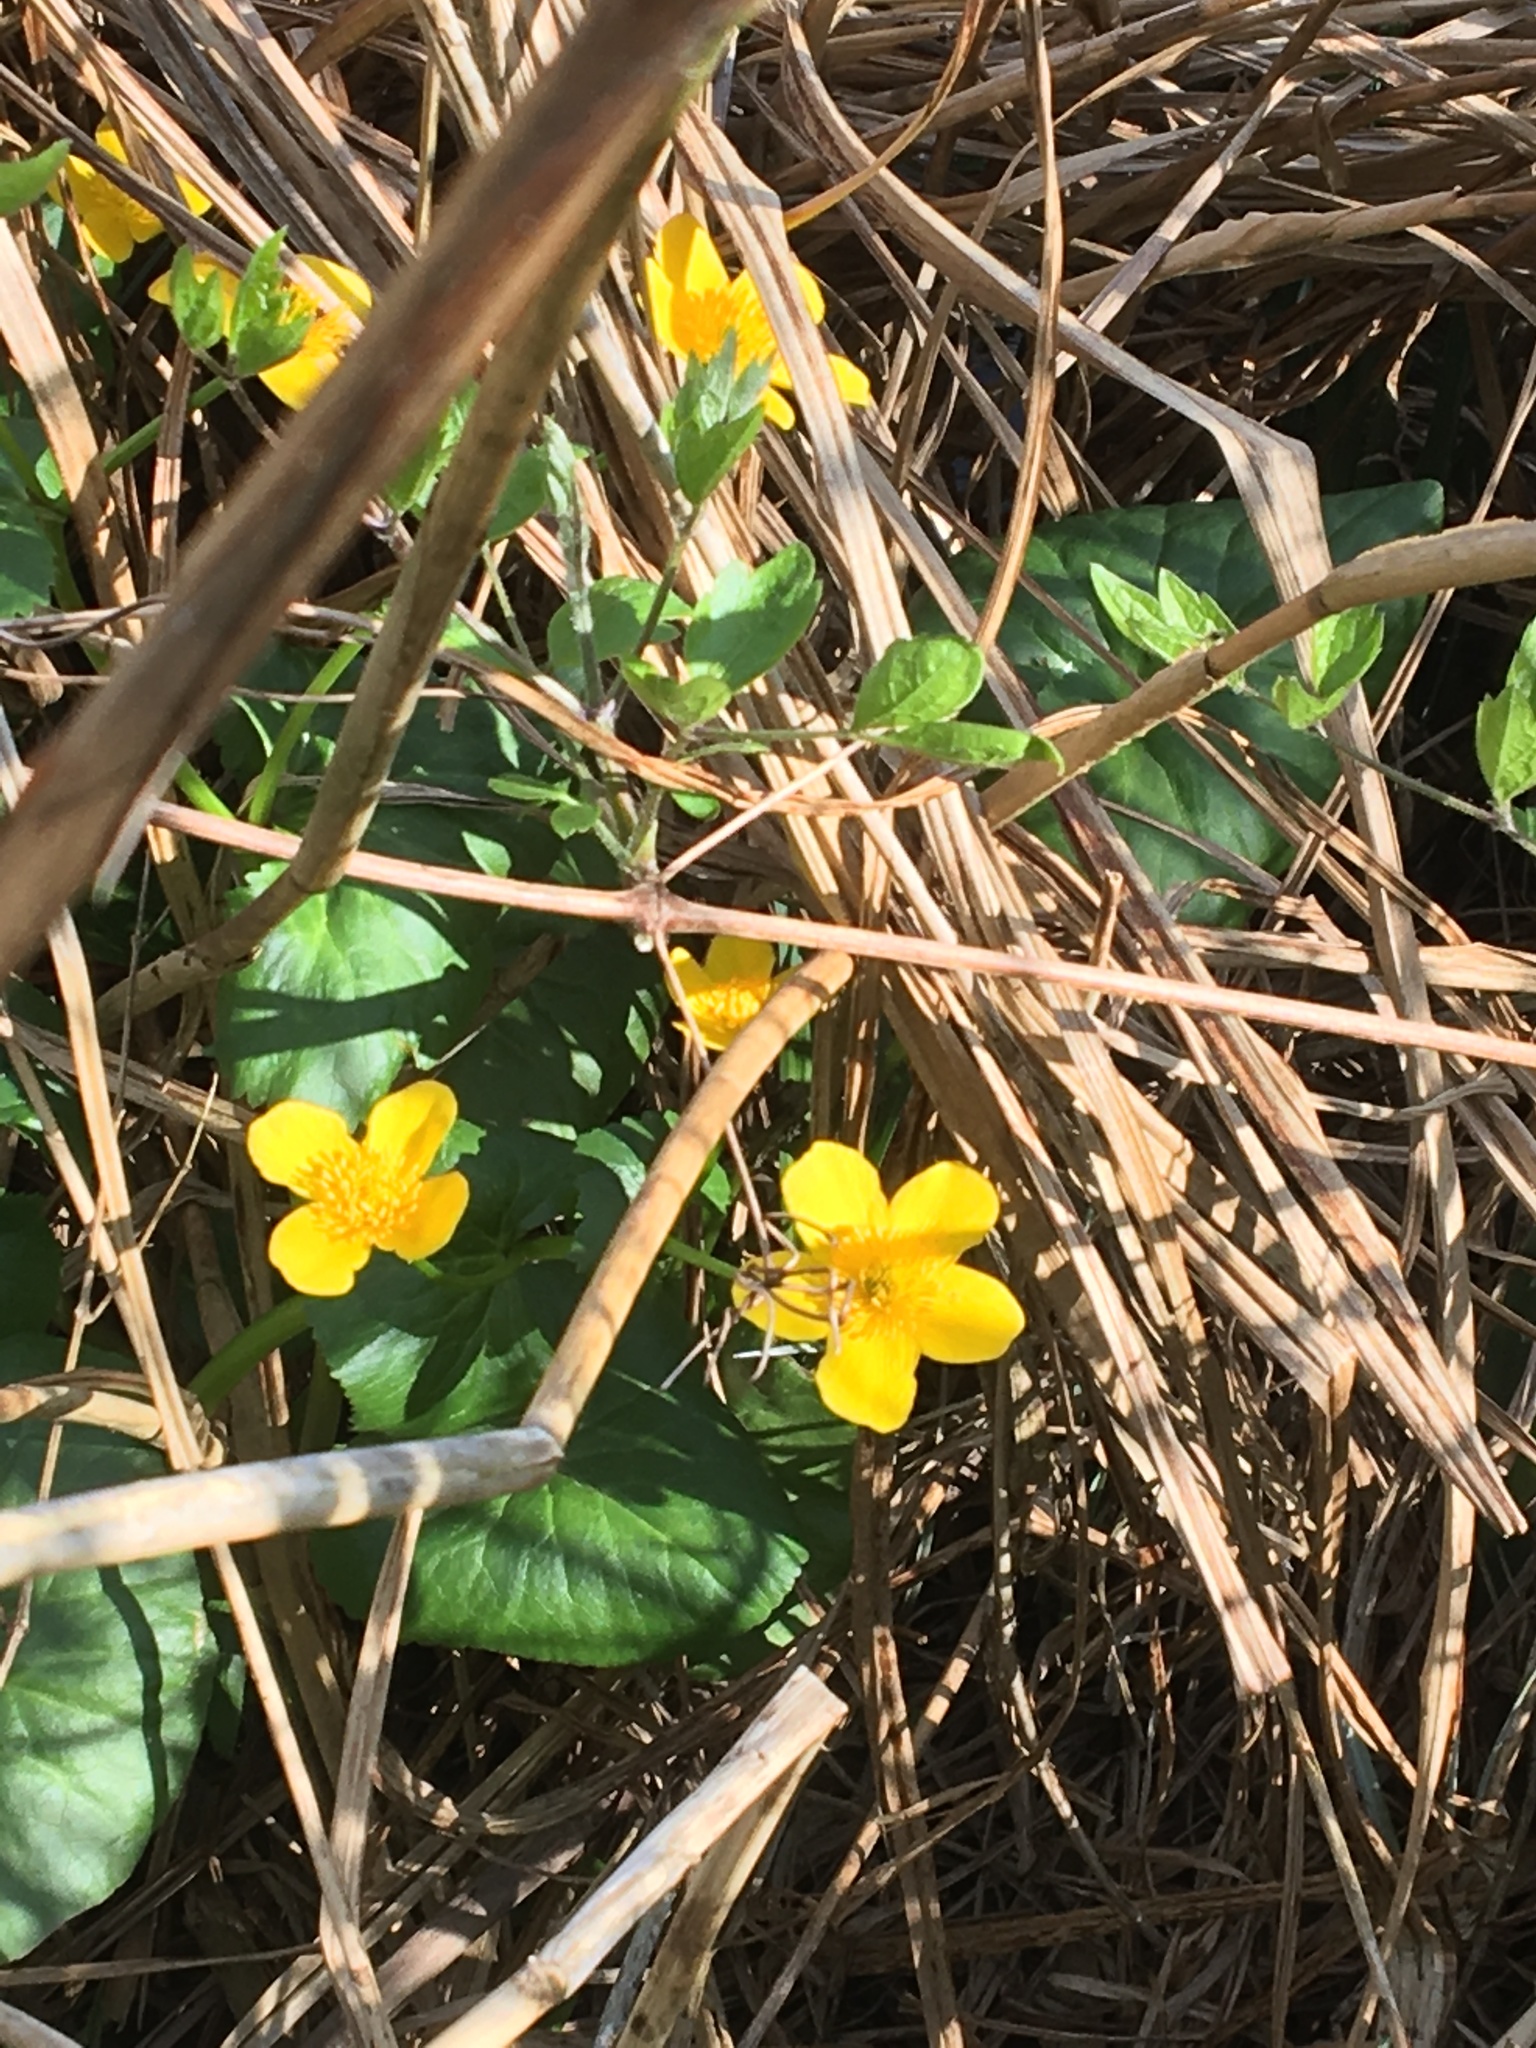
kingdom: Plantae
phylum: Tracheophyta
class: Magnoliopsida
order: Ranunculales
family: Ranunculaceae
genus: Caltha
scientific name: Caltha palustris
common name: Marsh marigold
